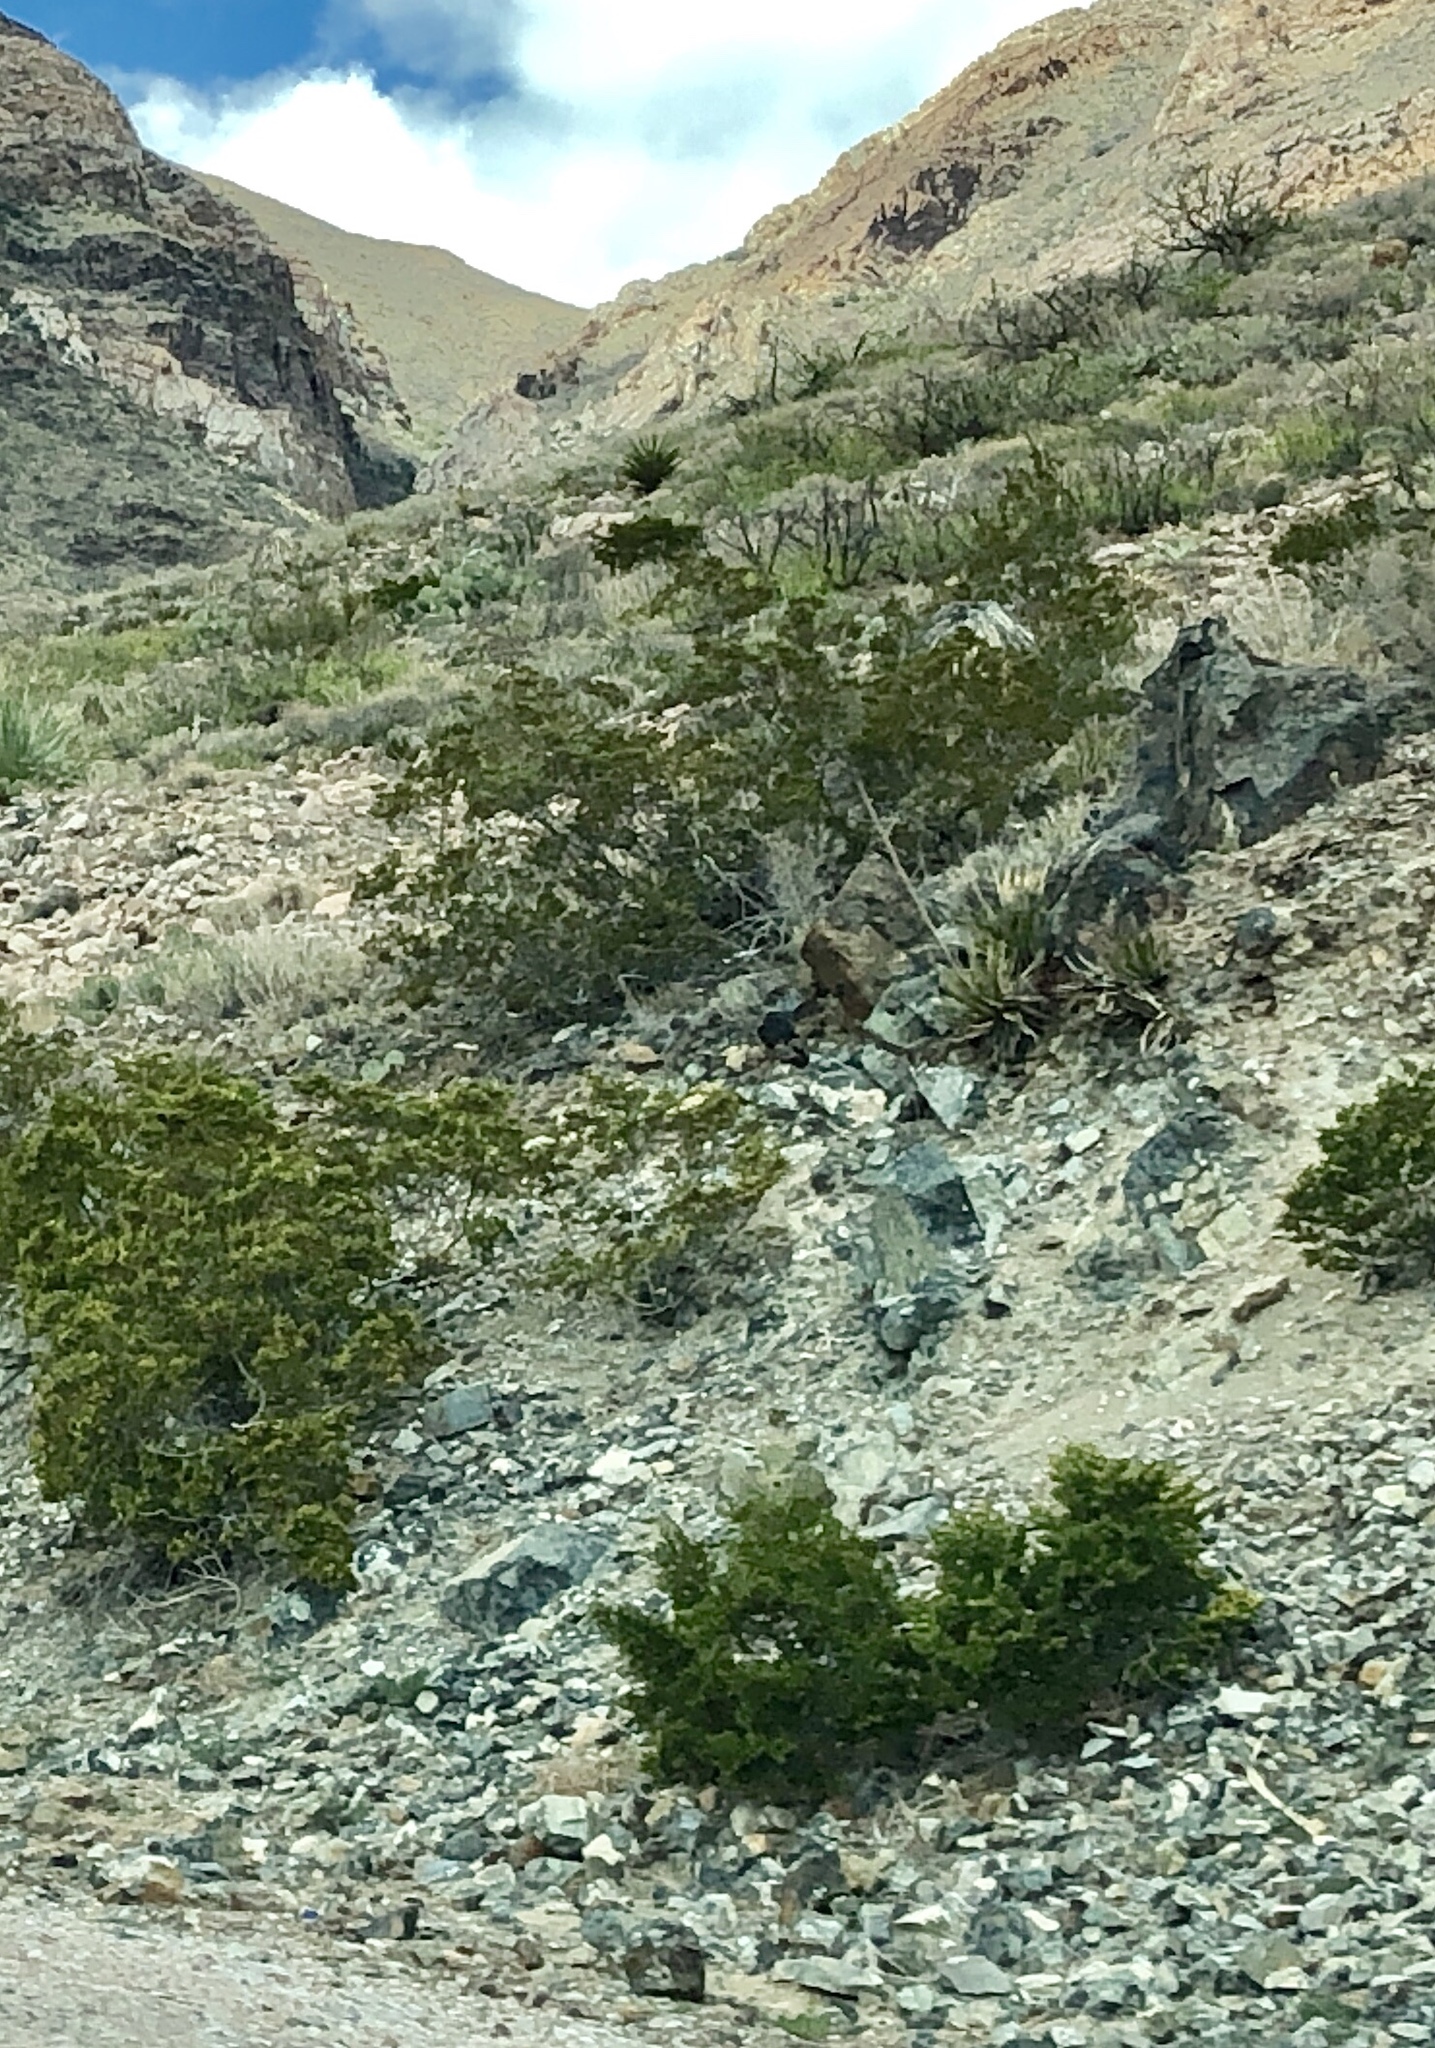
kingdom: Plantae
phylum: Tracheophyta
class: Magnoliopsida
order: Zygophyllales
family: Zygophyllaceae
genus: Larrea
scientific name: Larrea tridentata
